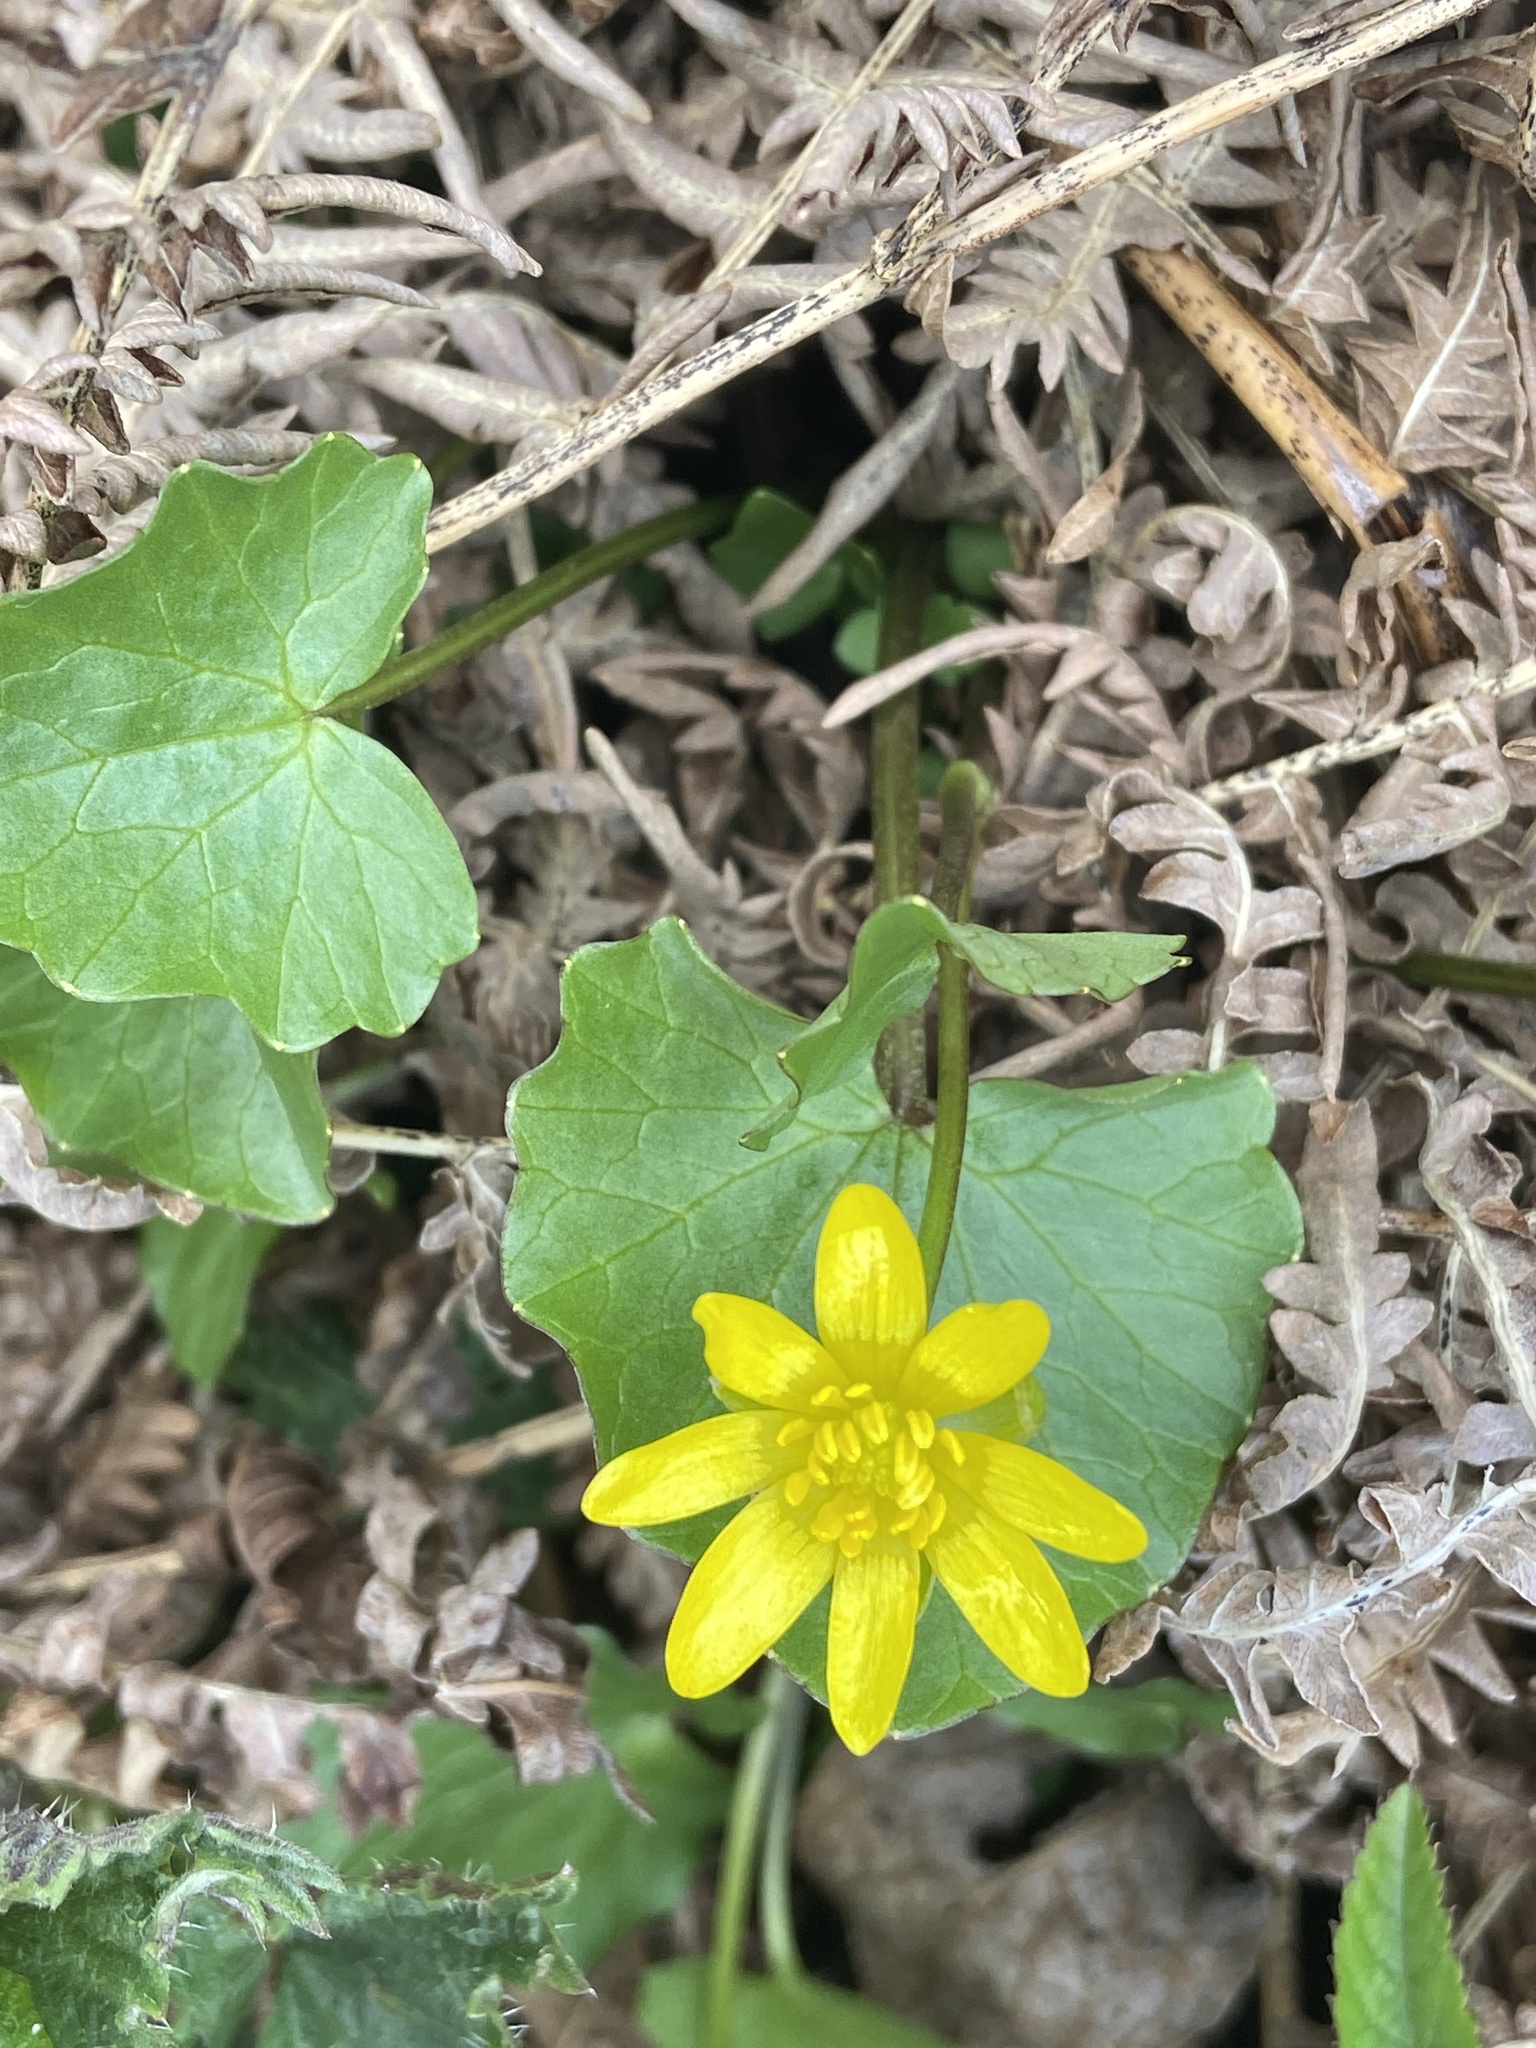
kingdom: Plantae
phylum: Tracheophyta
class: Magnoliopsida
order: Ranunculales
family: Ranunculaceae
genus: Ficaria
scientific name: Ficaria verna
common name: Lesser celandine
